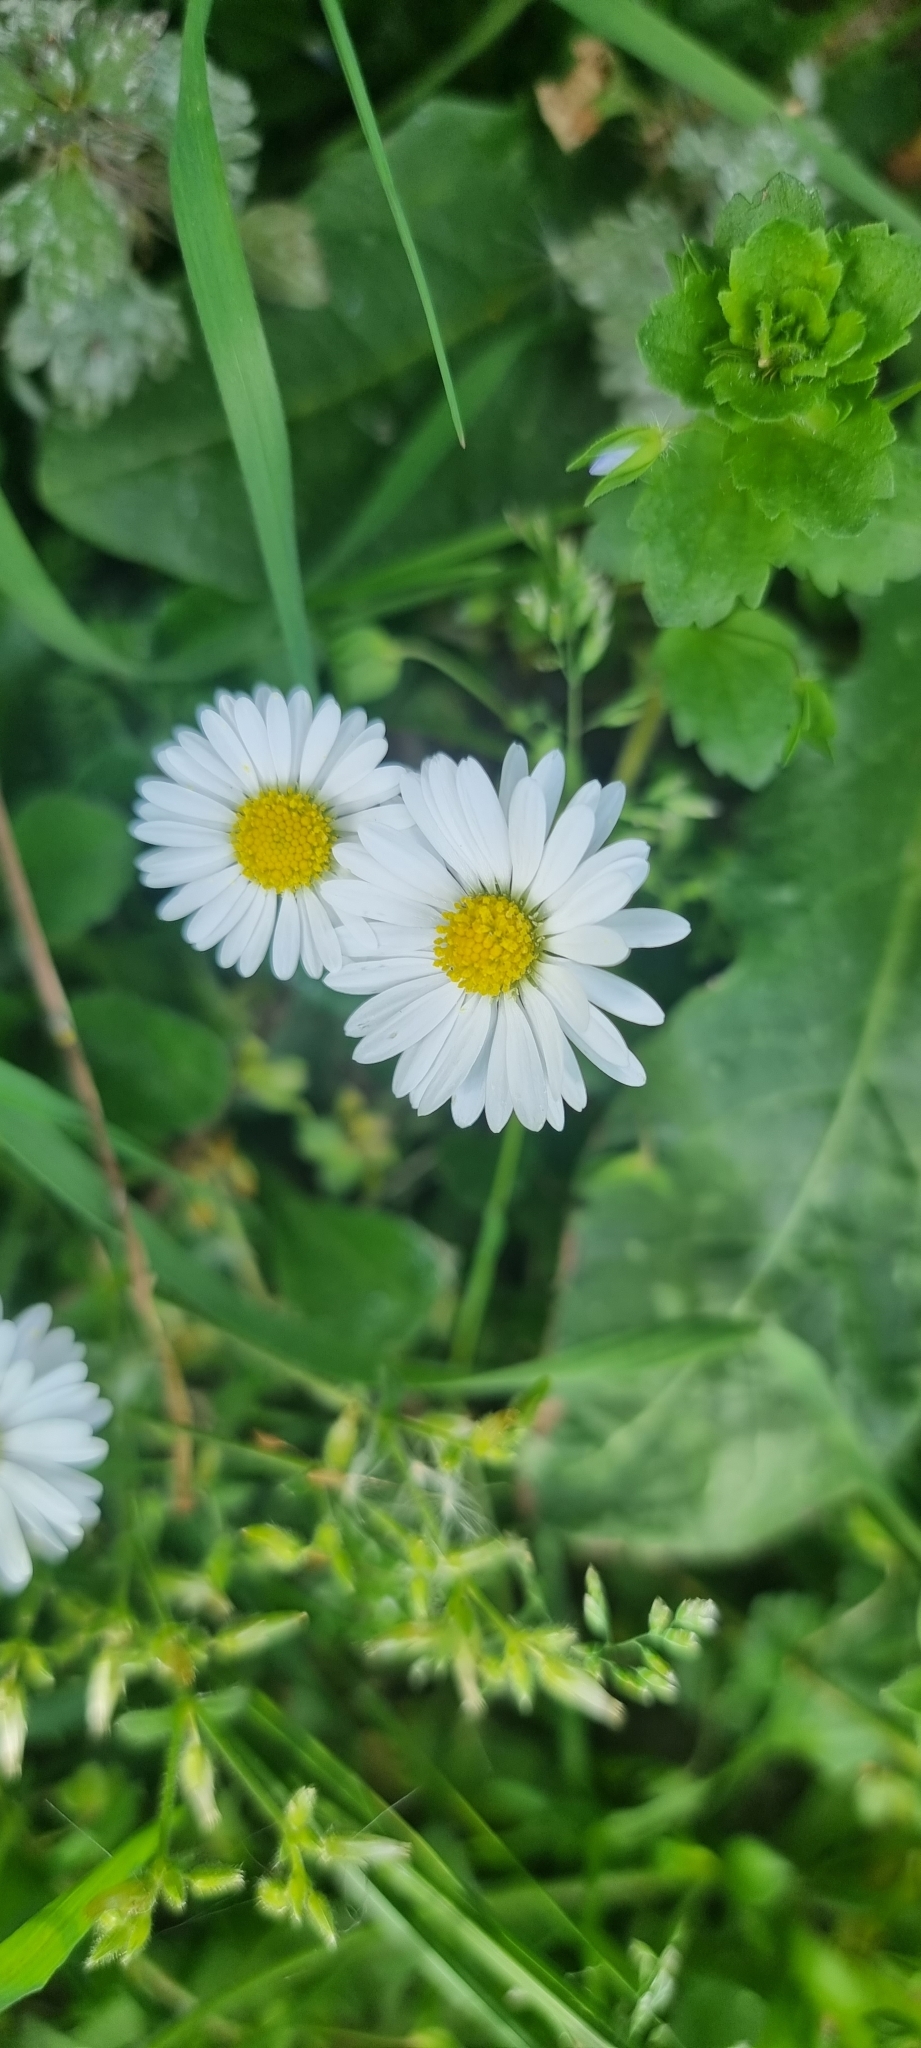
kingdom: Plantae
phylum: Tracheophyta
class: Magnoliopsida
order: Asterales
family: Asteraceae
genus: Bellis
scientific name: Bellis perennis
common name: Lawndaisy
